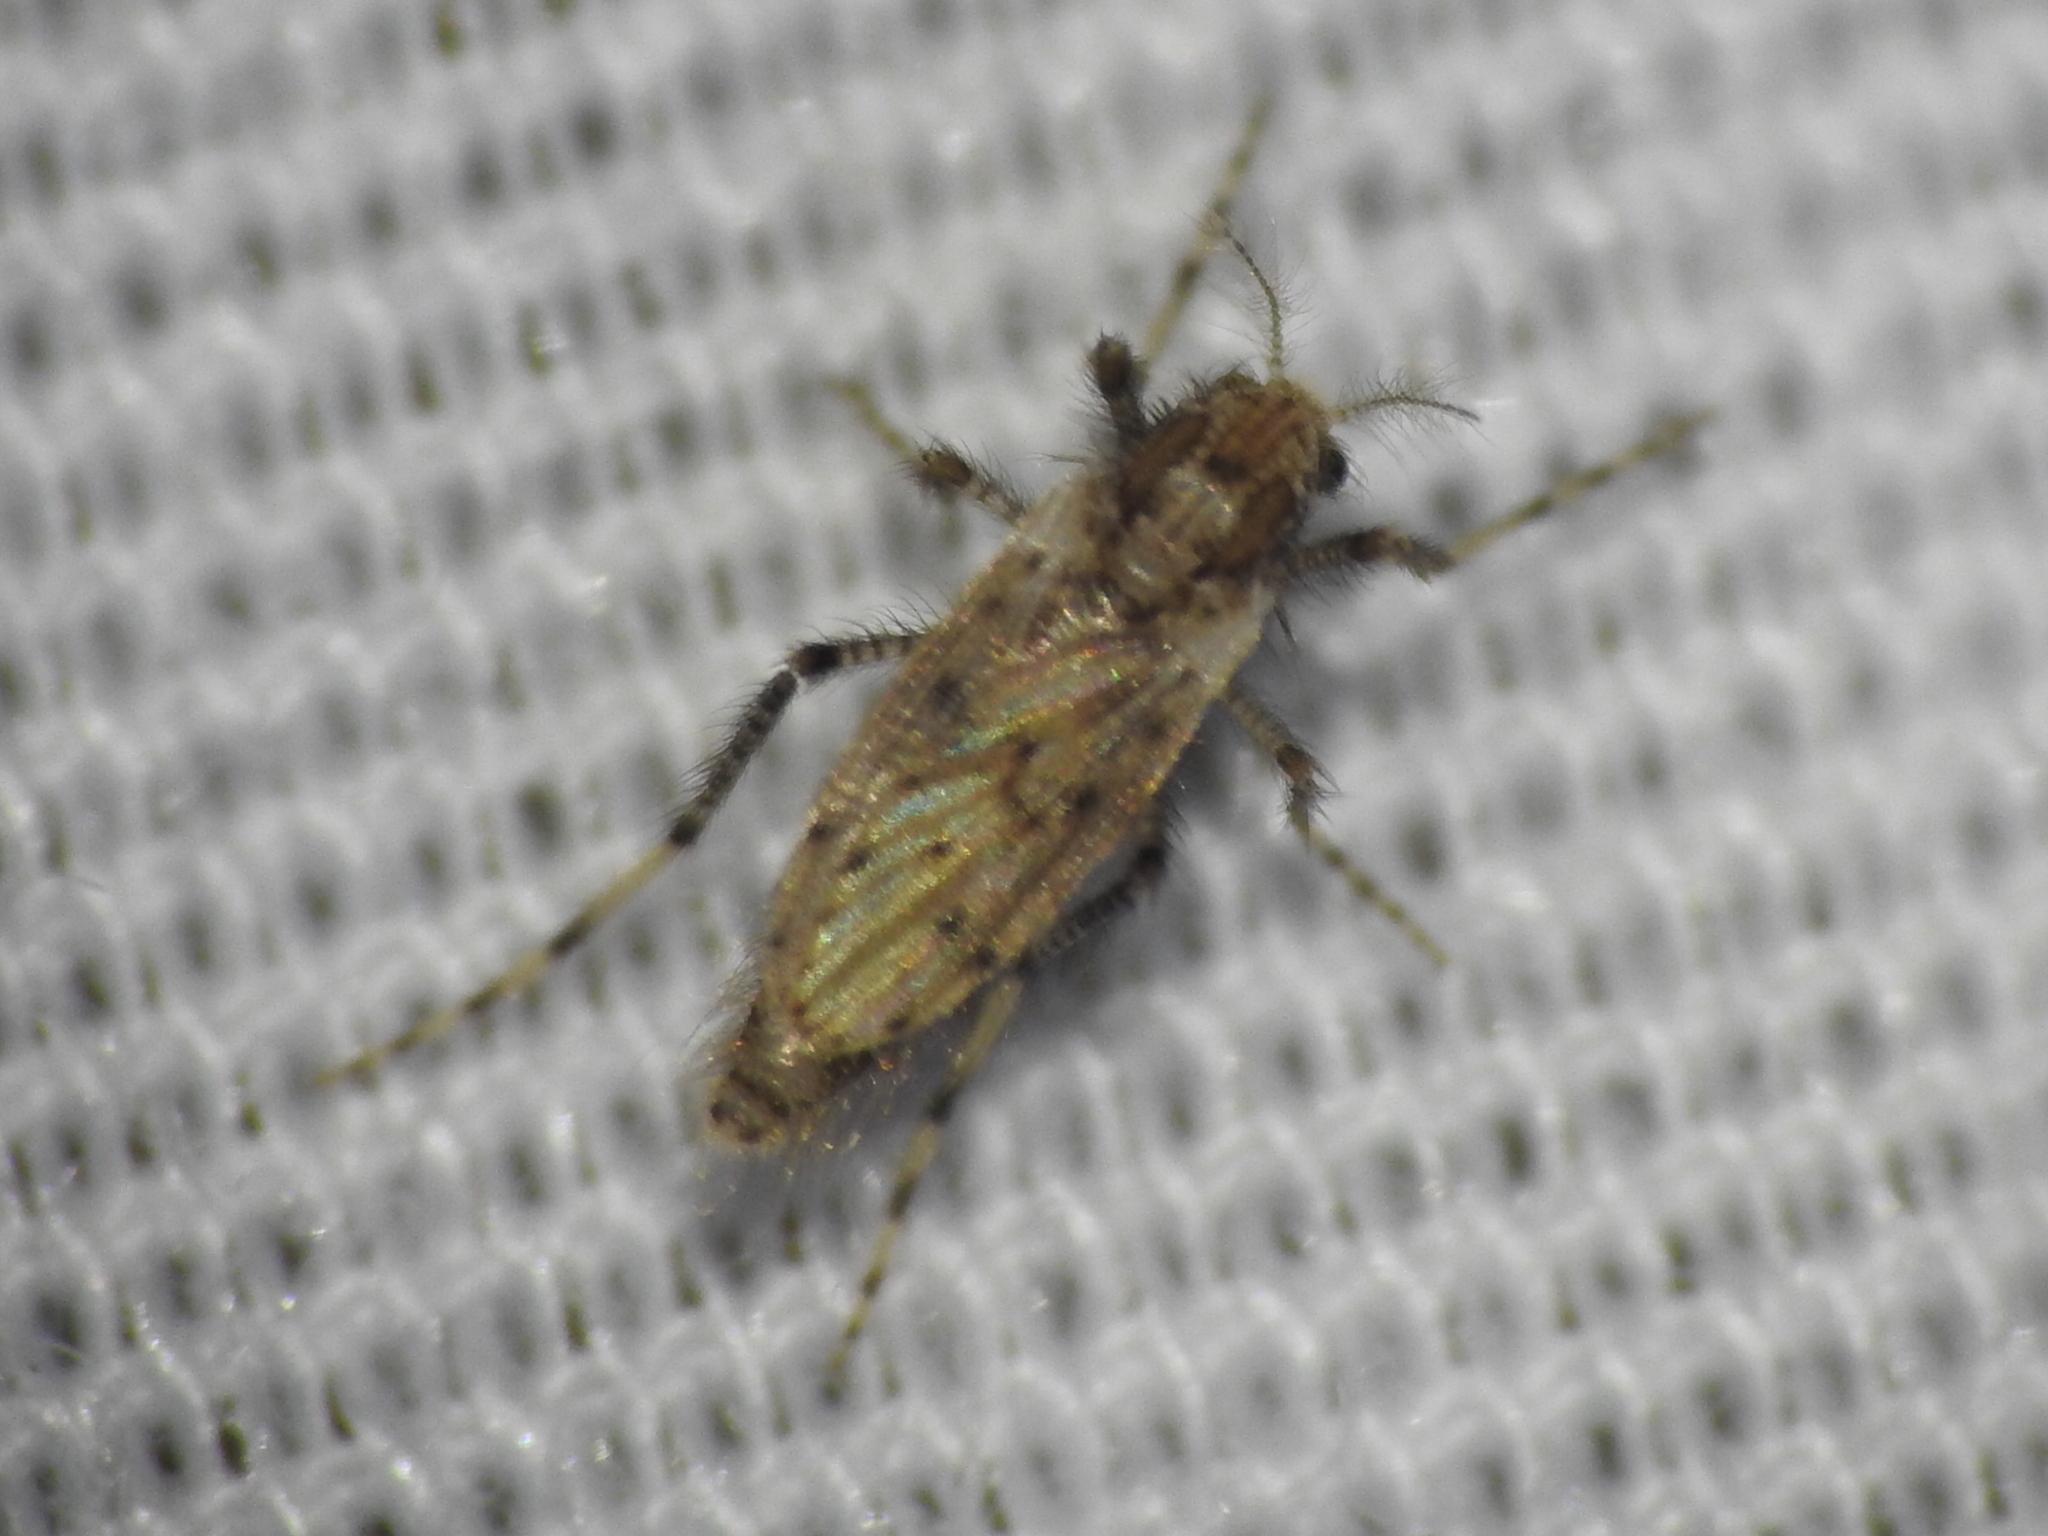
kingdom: Animalia
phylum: Arthropoda
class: Insecta
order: Diptera
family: Chaoboridae
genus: Chaoborus
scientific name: Chaoborus punctipennis
